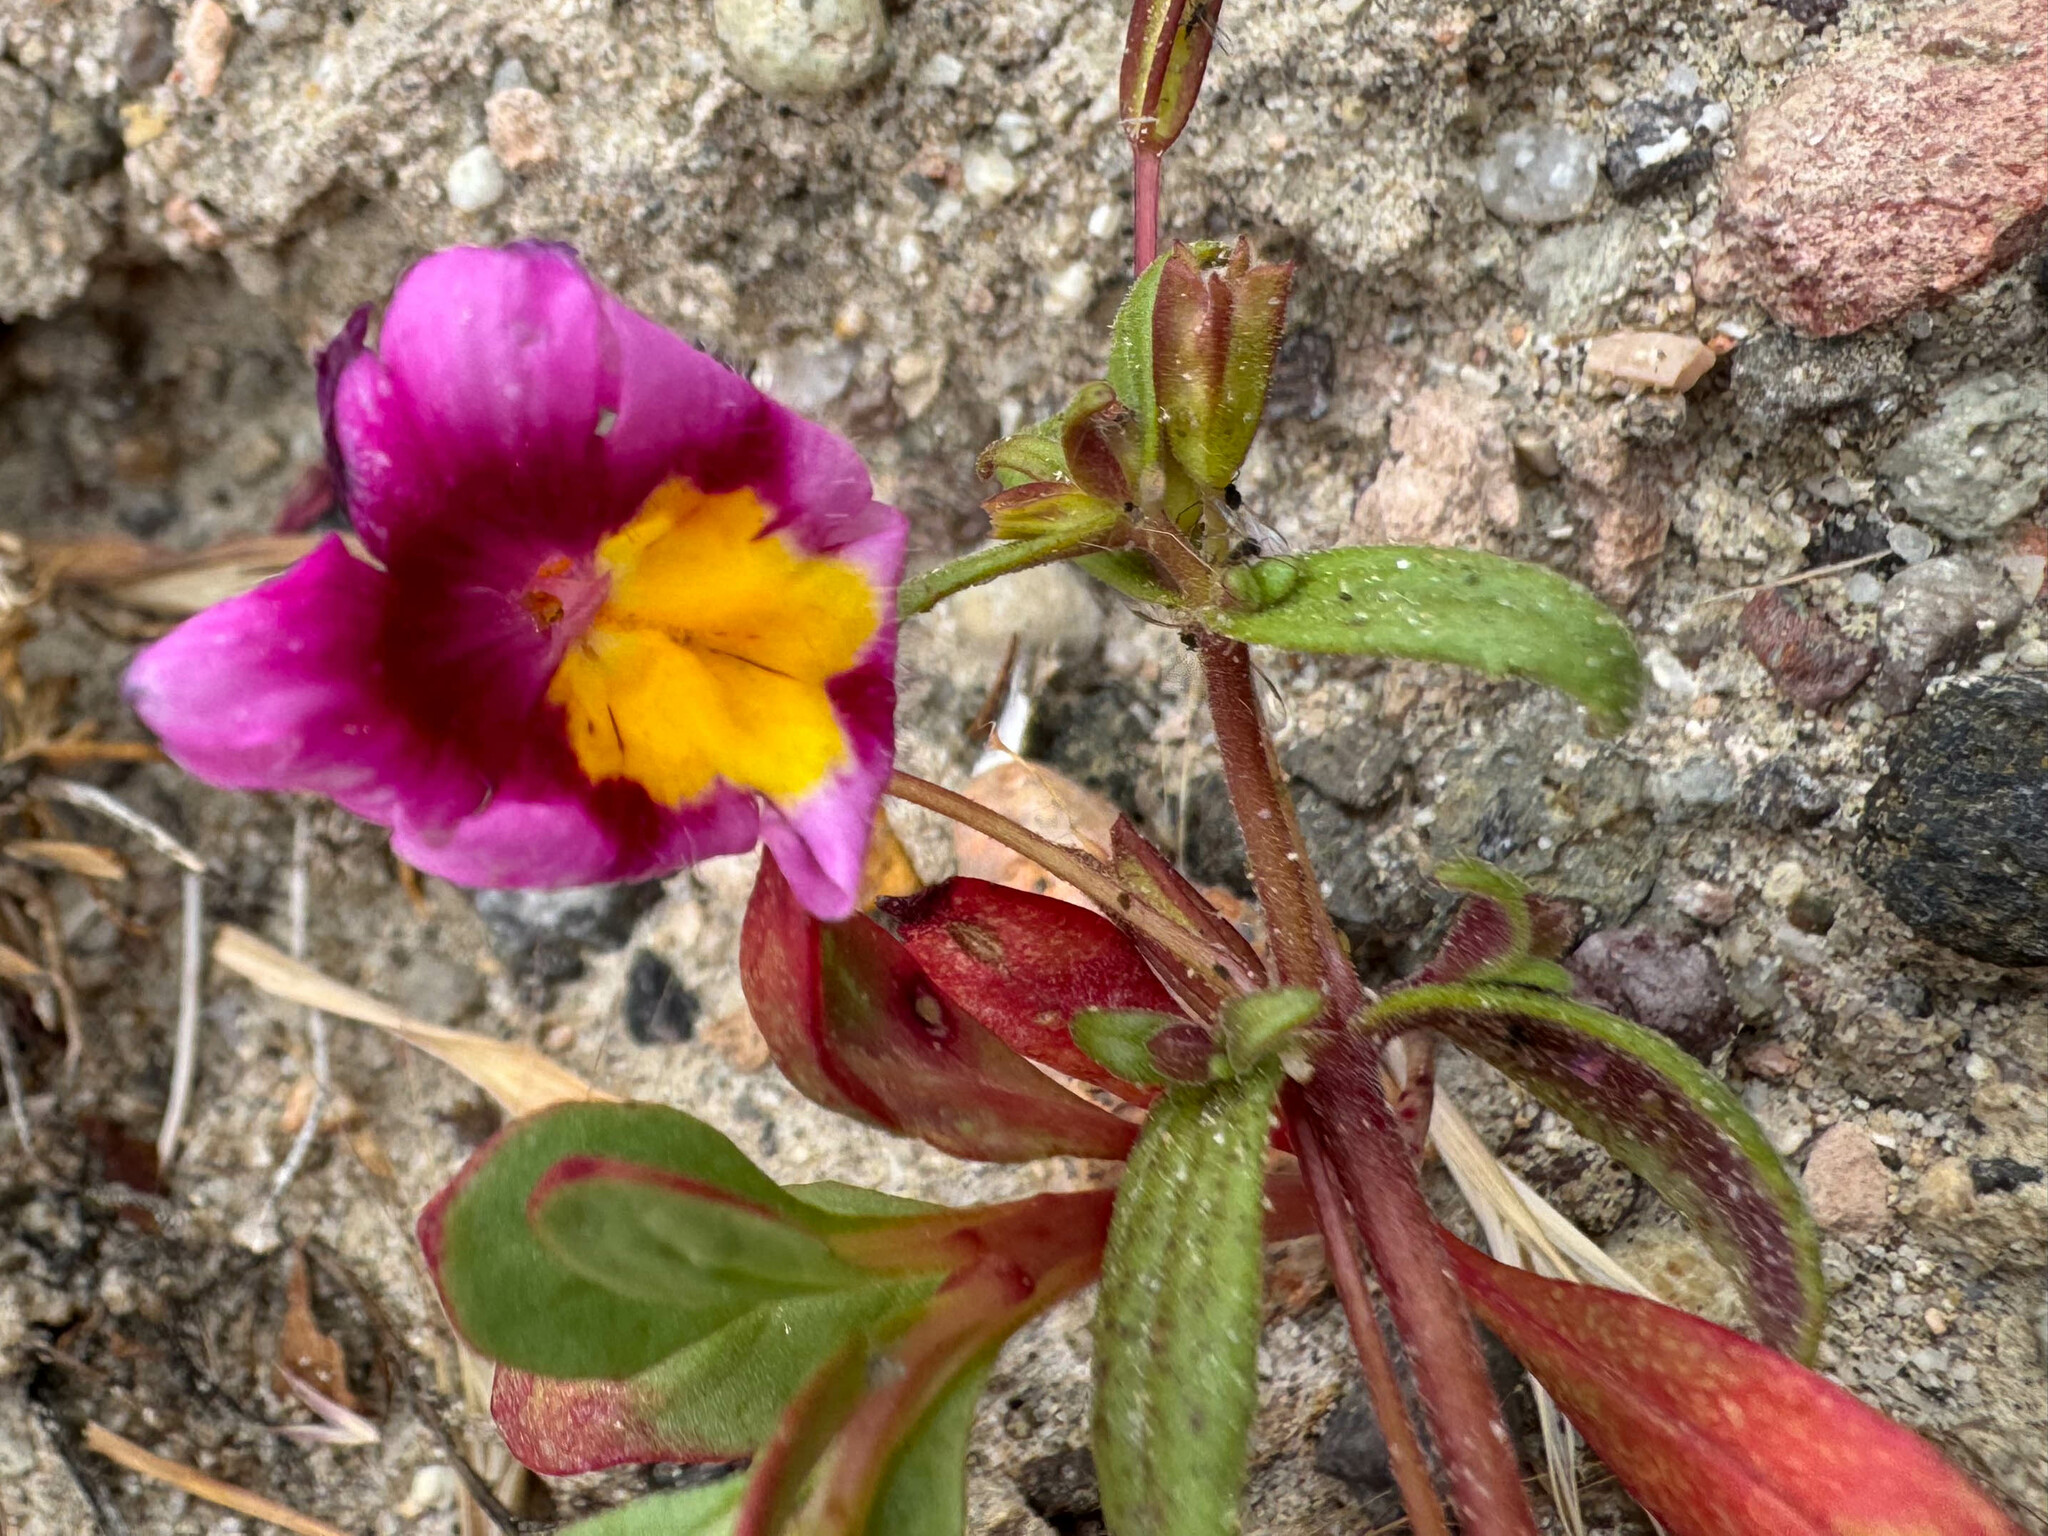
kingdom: Plantae
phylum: Tracheophyta
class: Magnoliopsida
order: Lamiales
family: Phrymaceae
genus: Erythranthe
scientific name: Erythranthe rhodopetra
